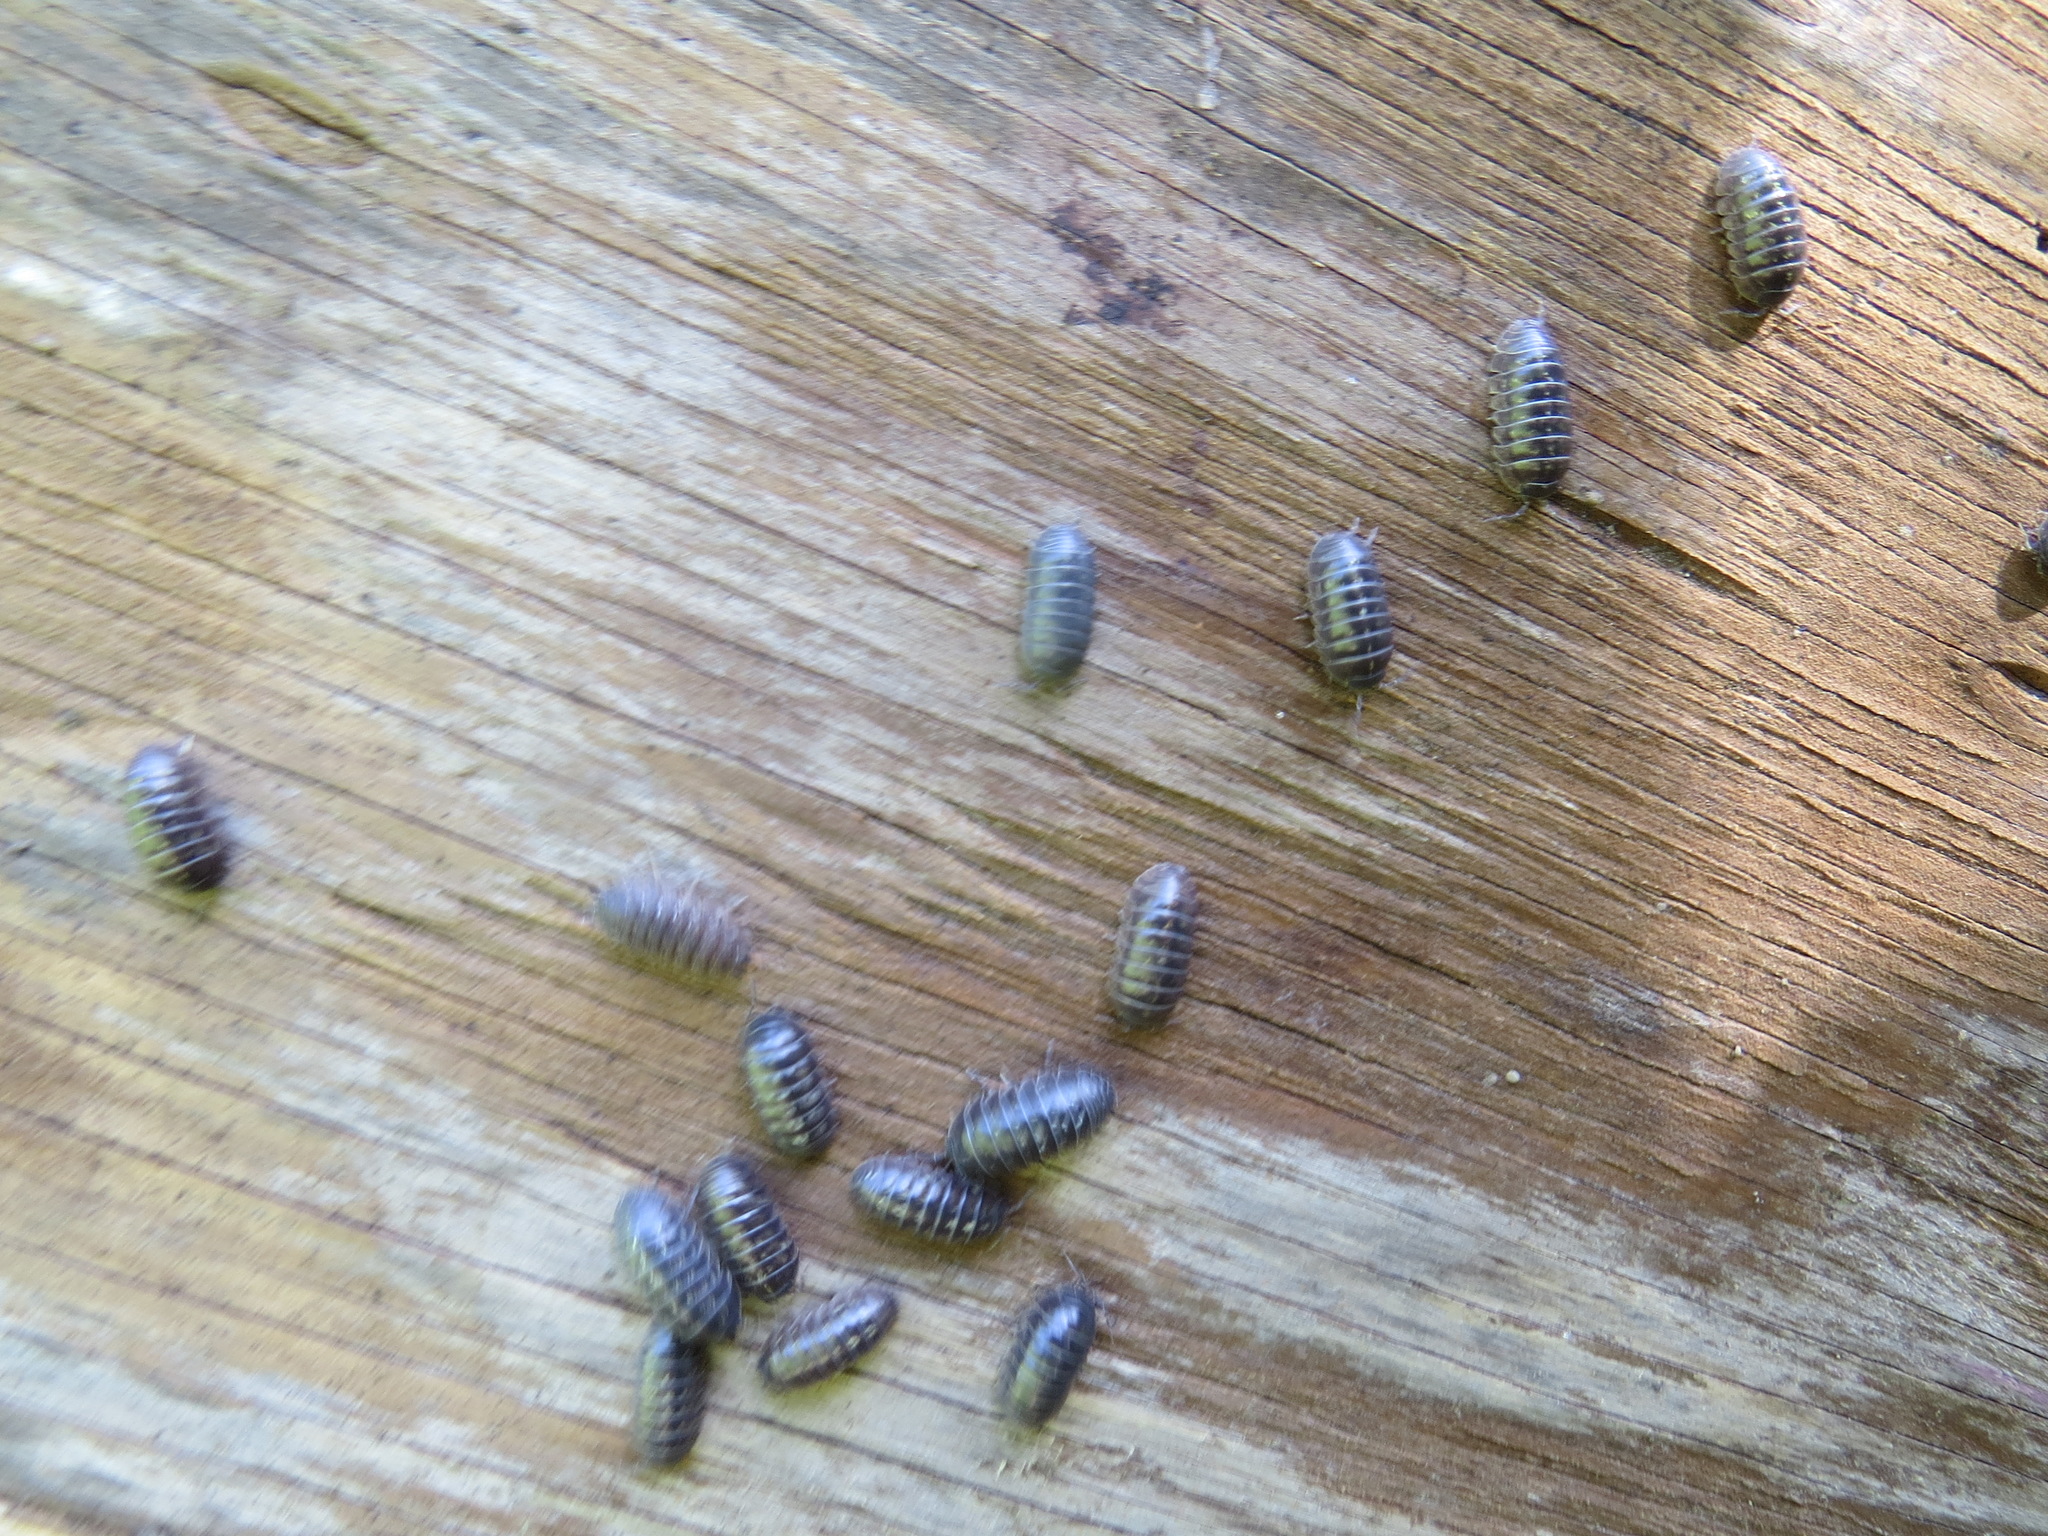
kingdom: Animalia
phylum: Arthropoda
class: Malacostraca
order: Isopoda
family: Armadillidiidae
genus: Armadillidium
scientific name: Armadillidium vulgare
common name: Common pill woodlouse
